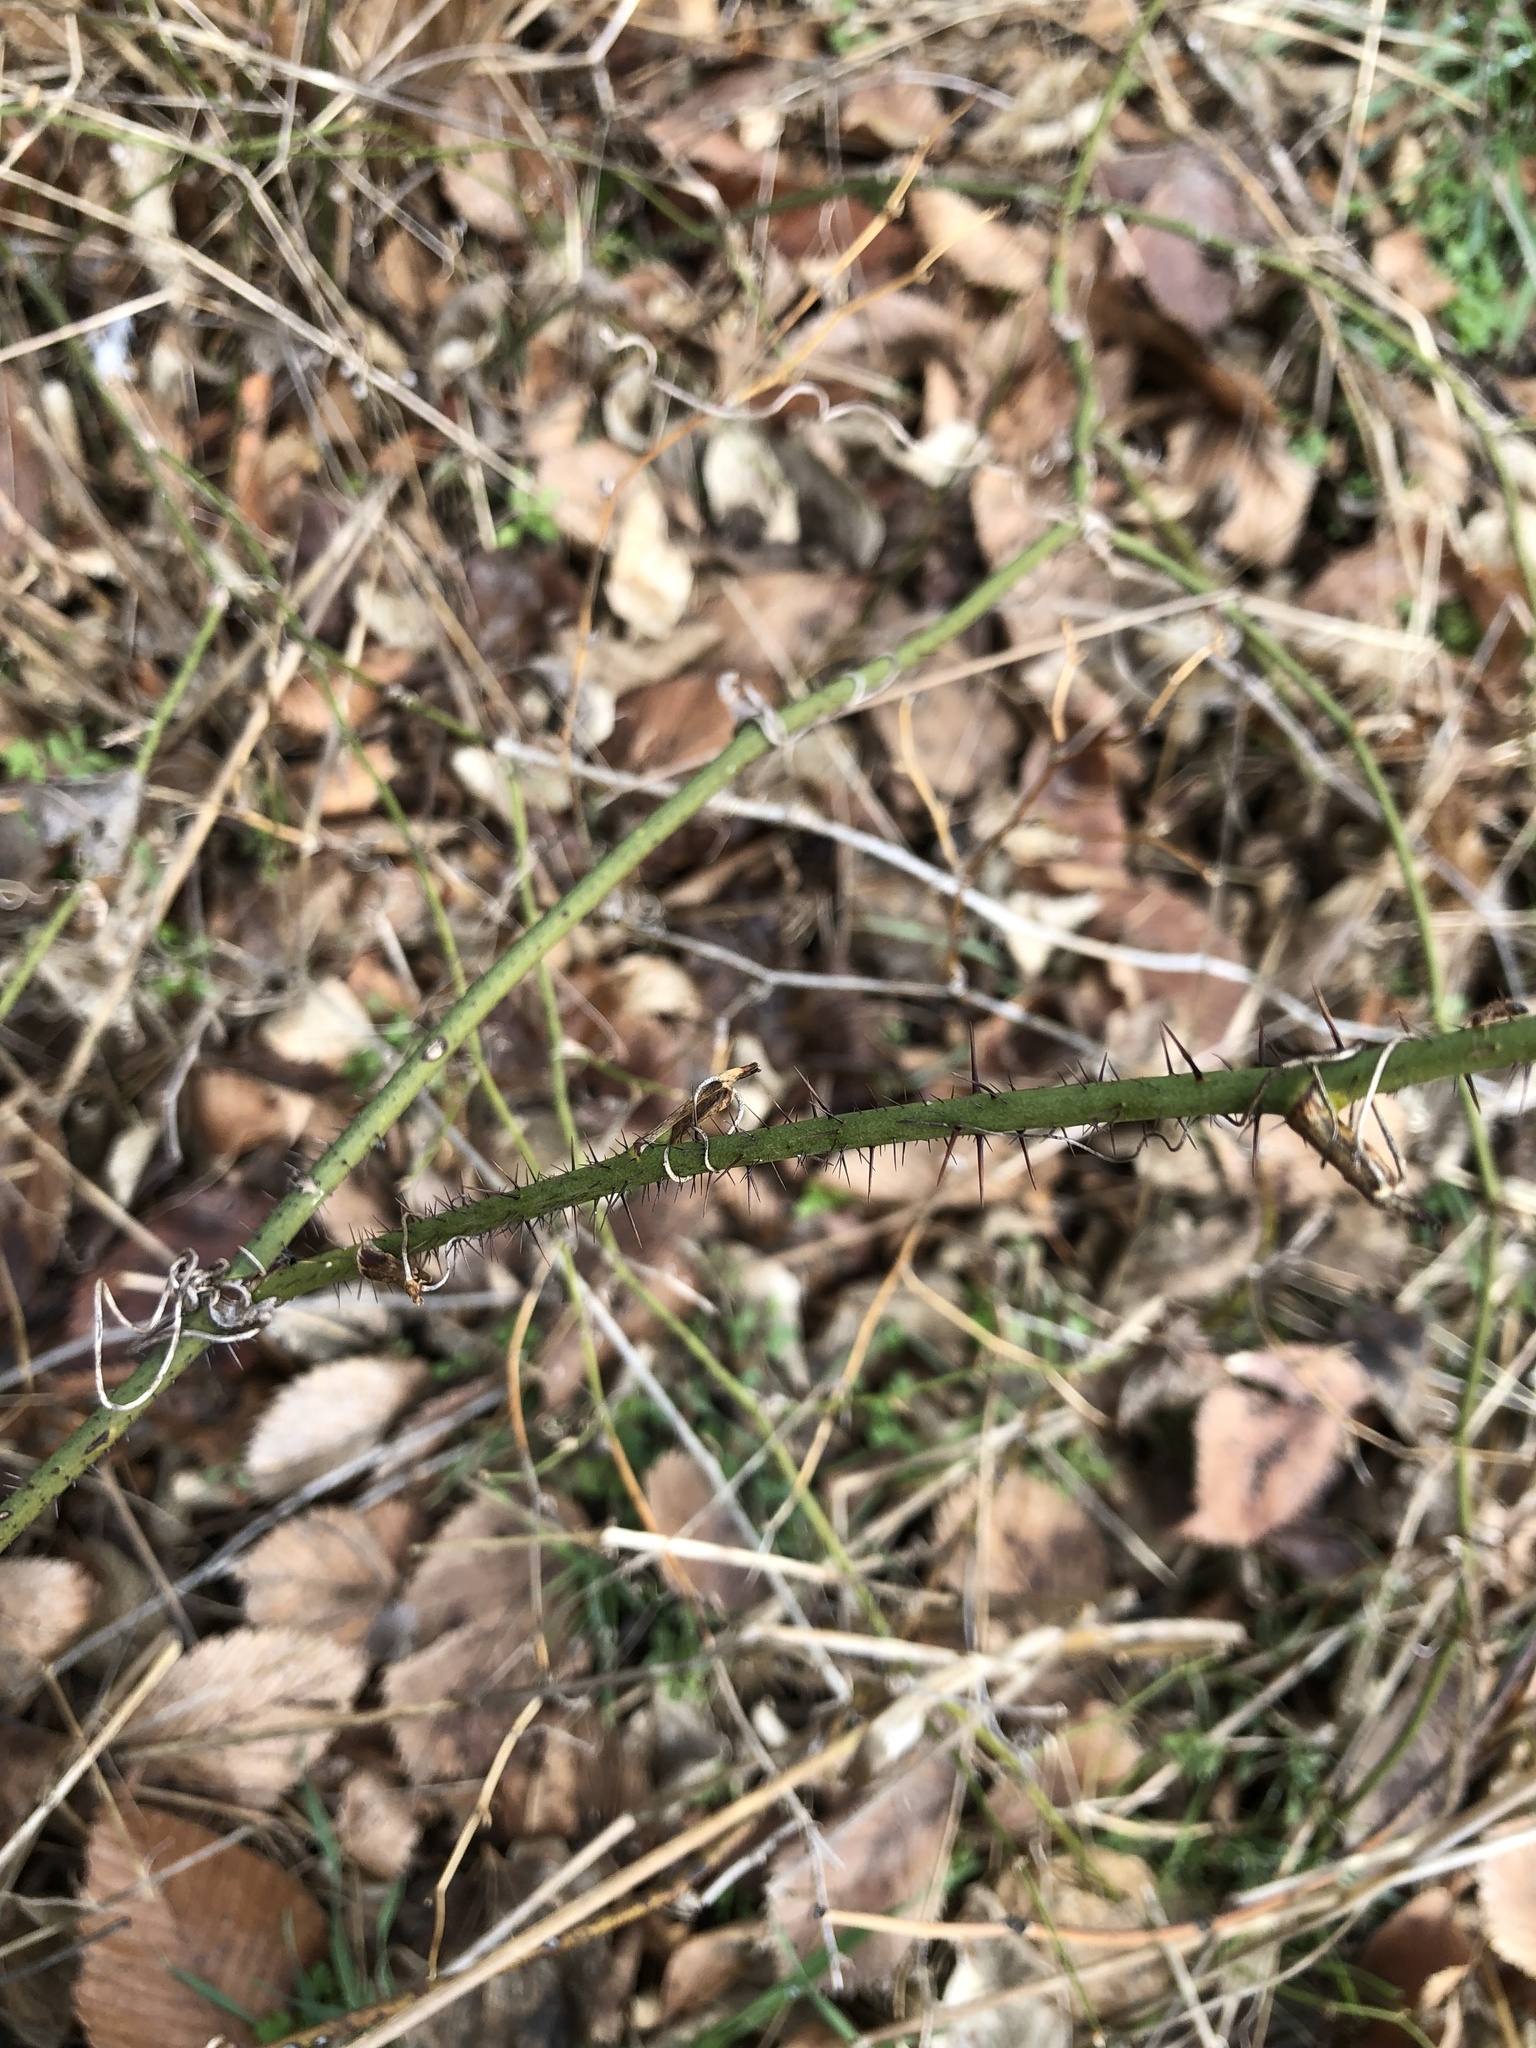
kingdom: Plantae
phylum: Tracheophyta
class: Liliopsida
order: Liliales
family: Smilacaceae
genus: Smilax
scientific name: Smilax tamnoides
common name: Hellfetter
